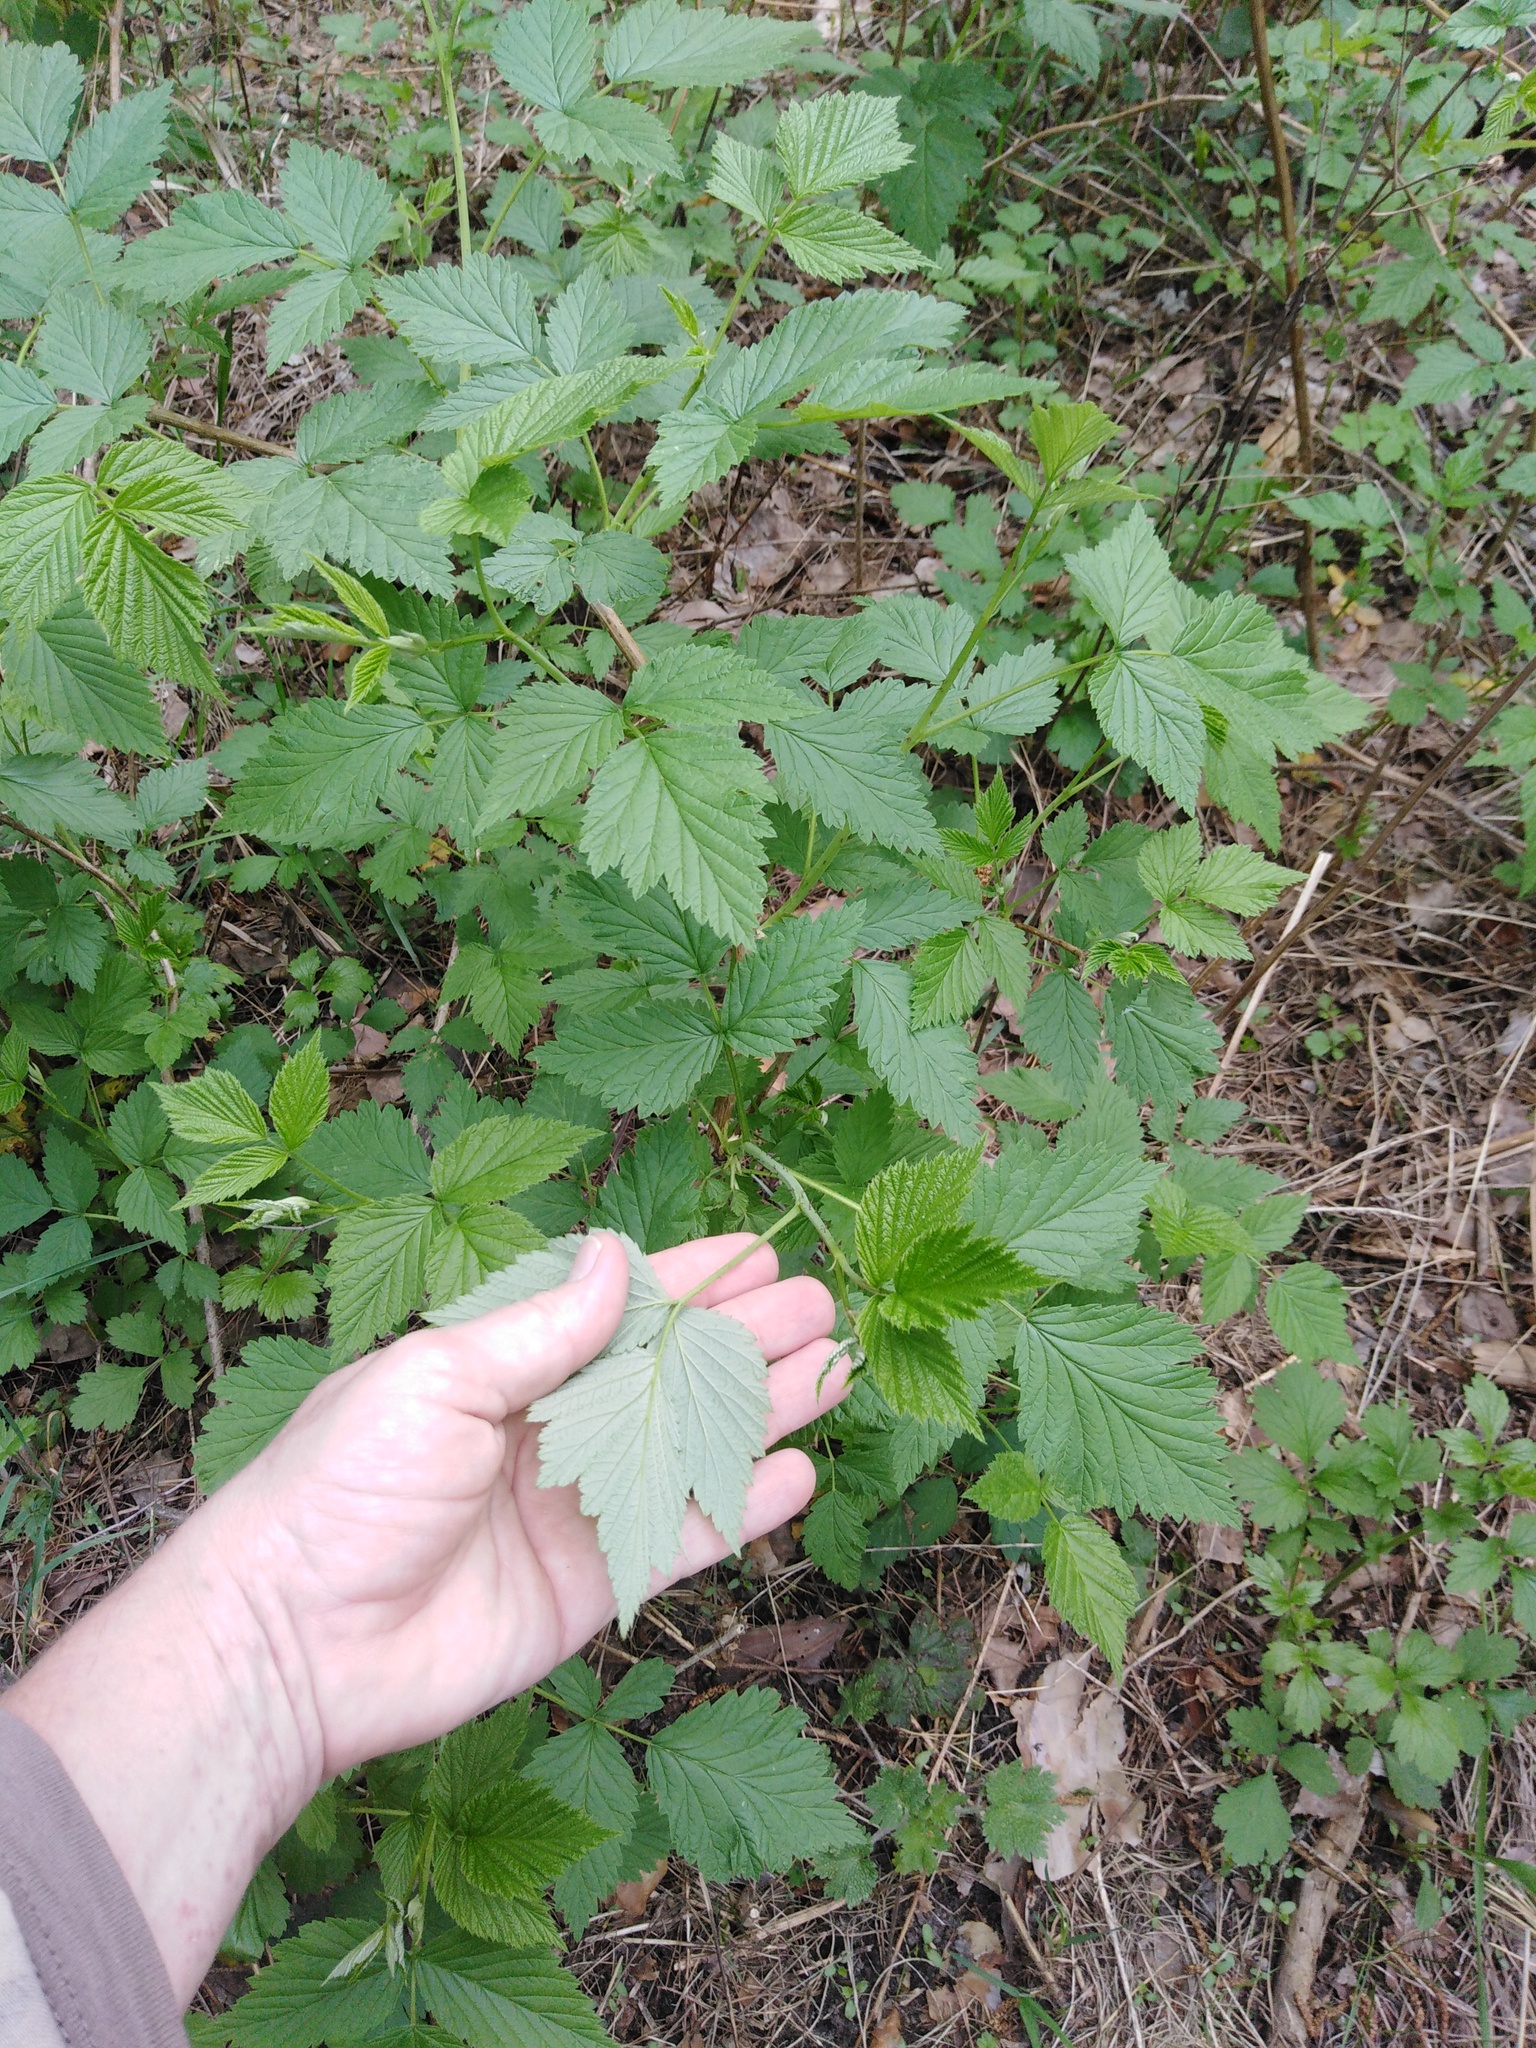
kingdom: Plantae
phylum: Tracheophyta
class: Magnoliopsida
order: Rosales
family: Rosaceae
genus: Rubus
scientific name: Rubus idaeus
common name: Raspberry
